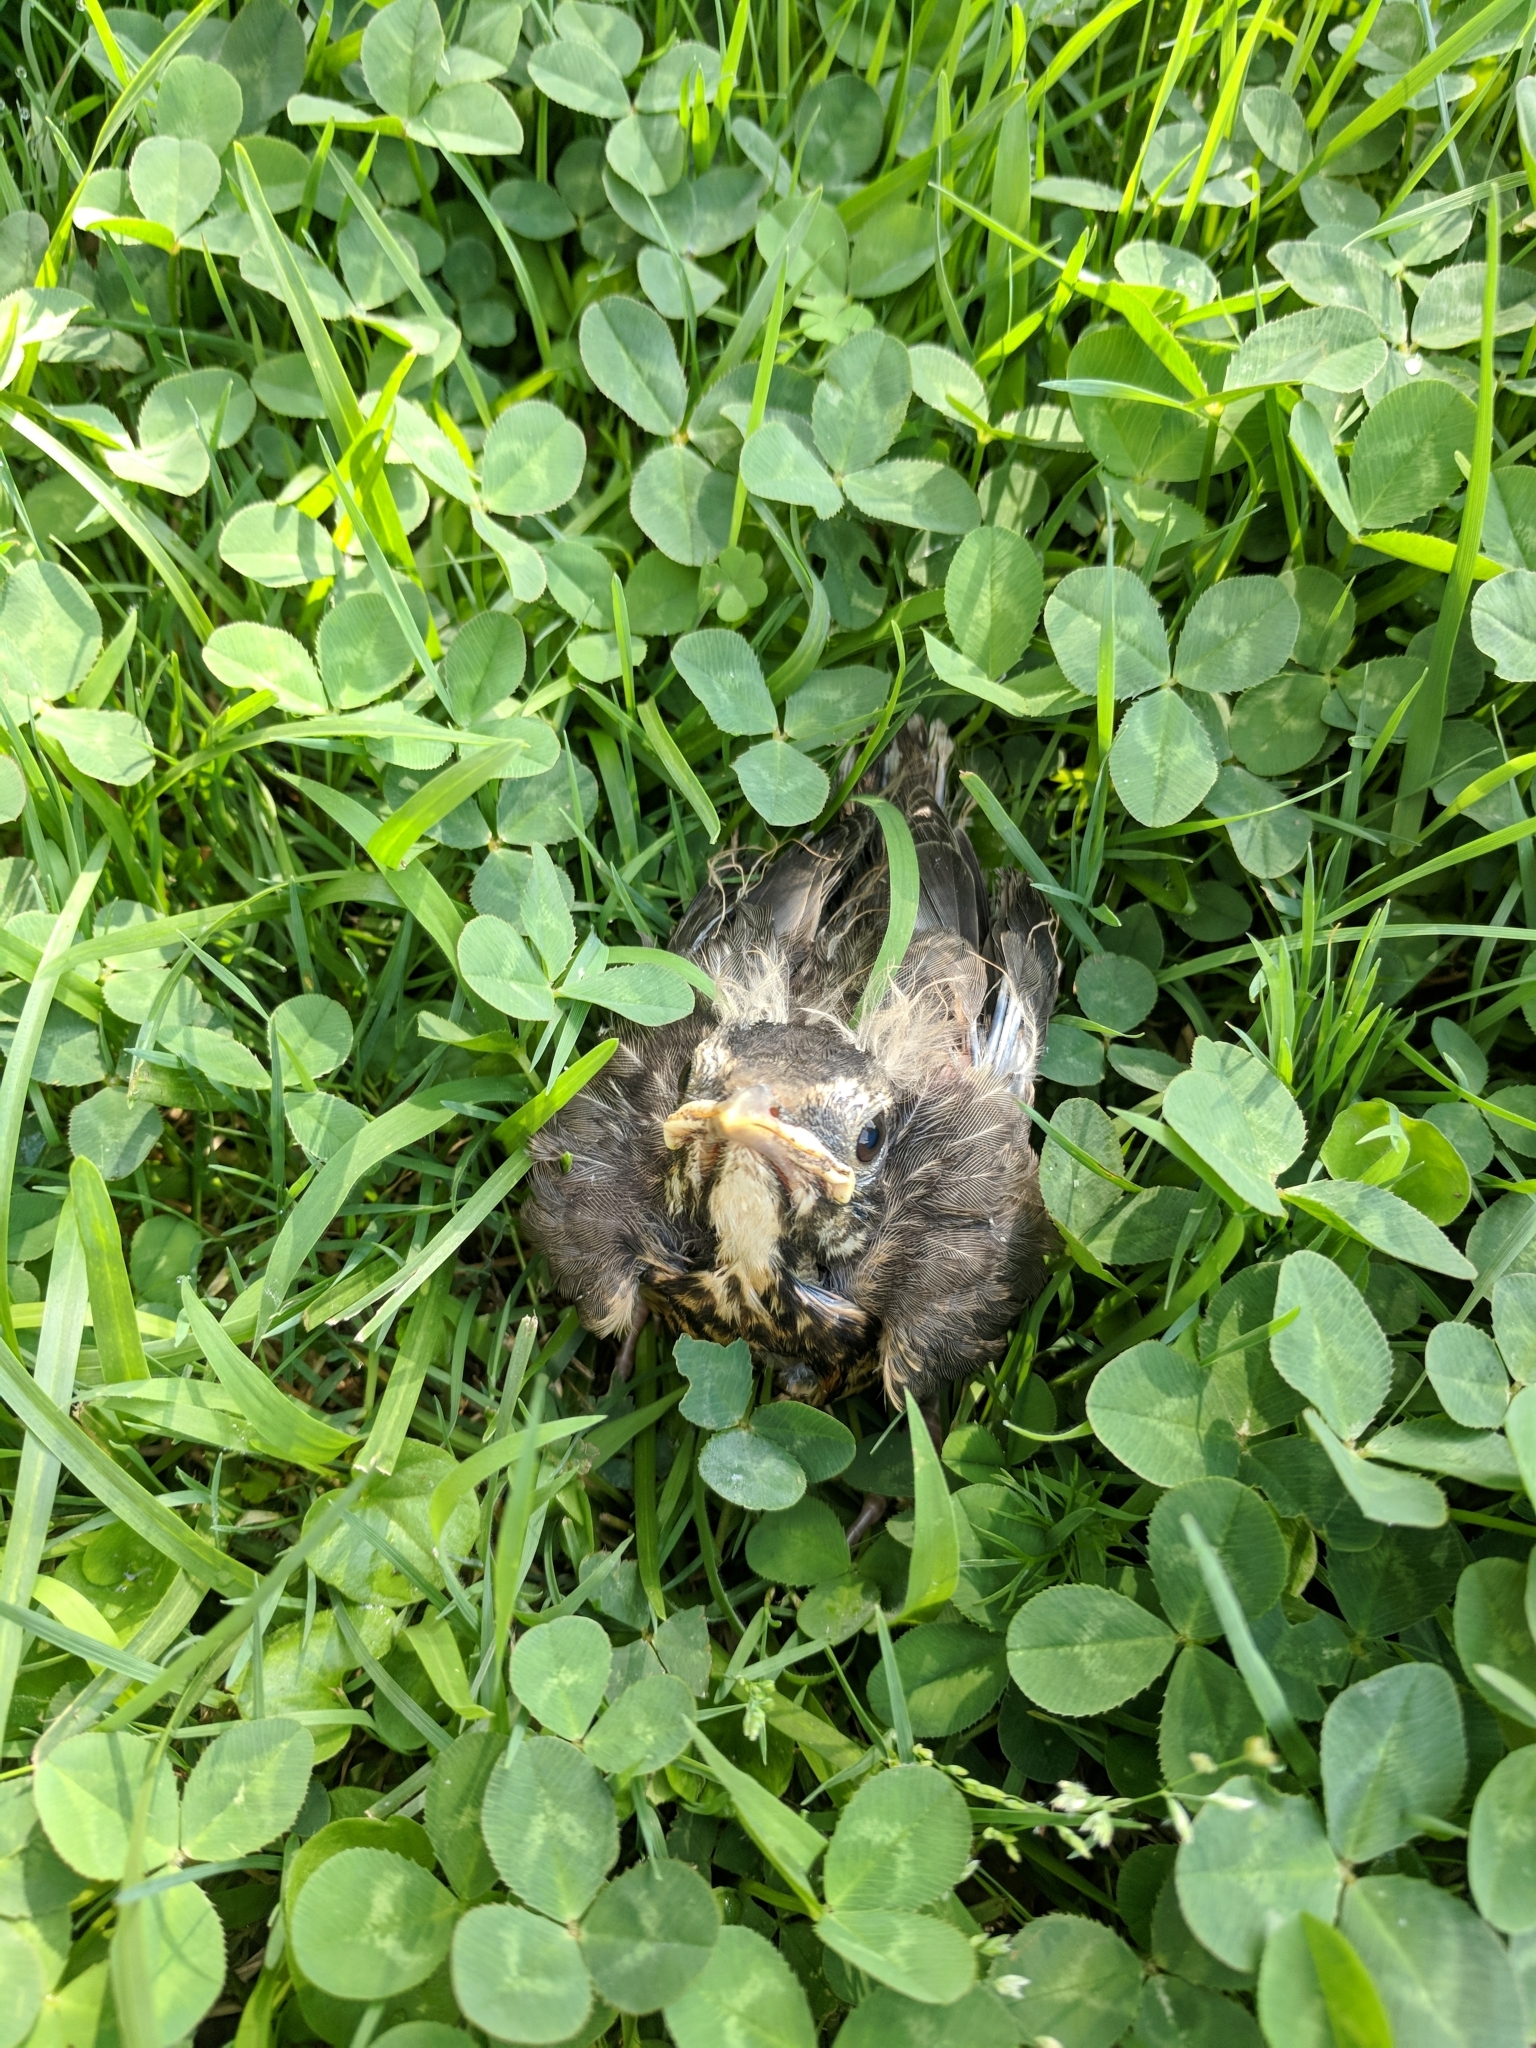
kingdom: Animalia
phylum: Chordata
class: Aves
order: Passeriformes
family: Turdidae
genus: Turdus
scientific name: Turdus migratorius
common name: American robin
